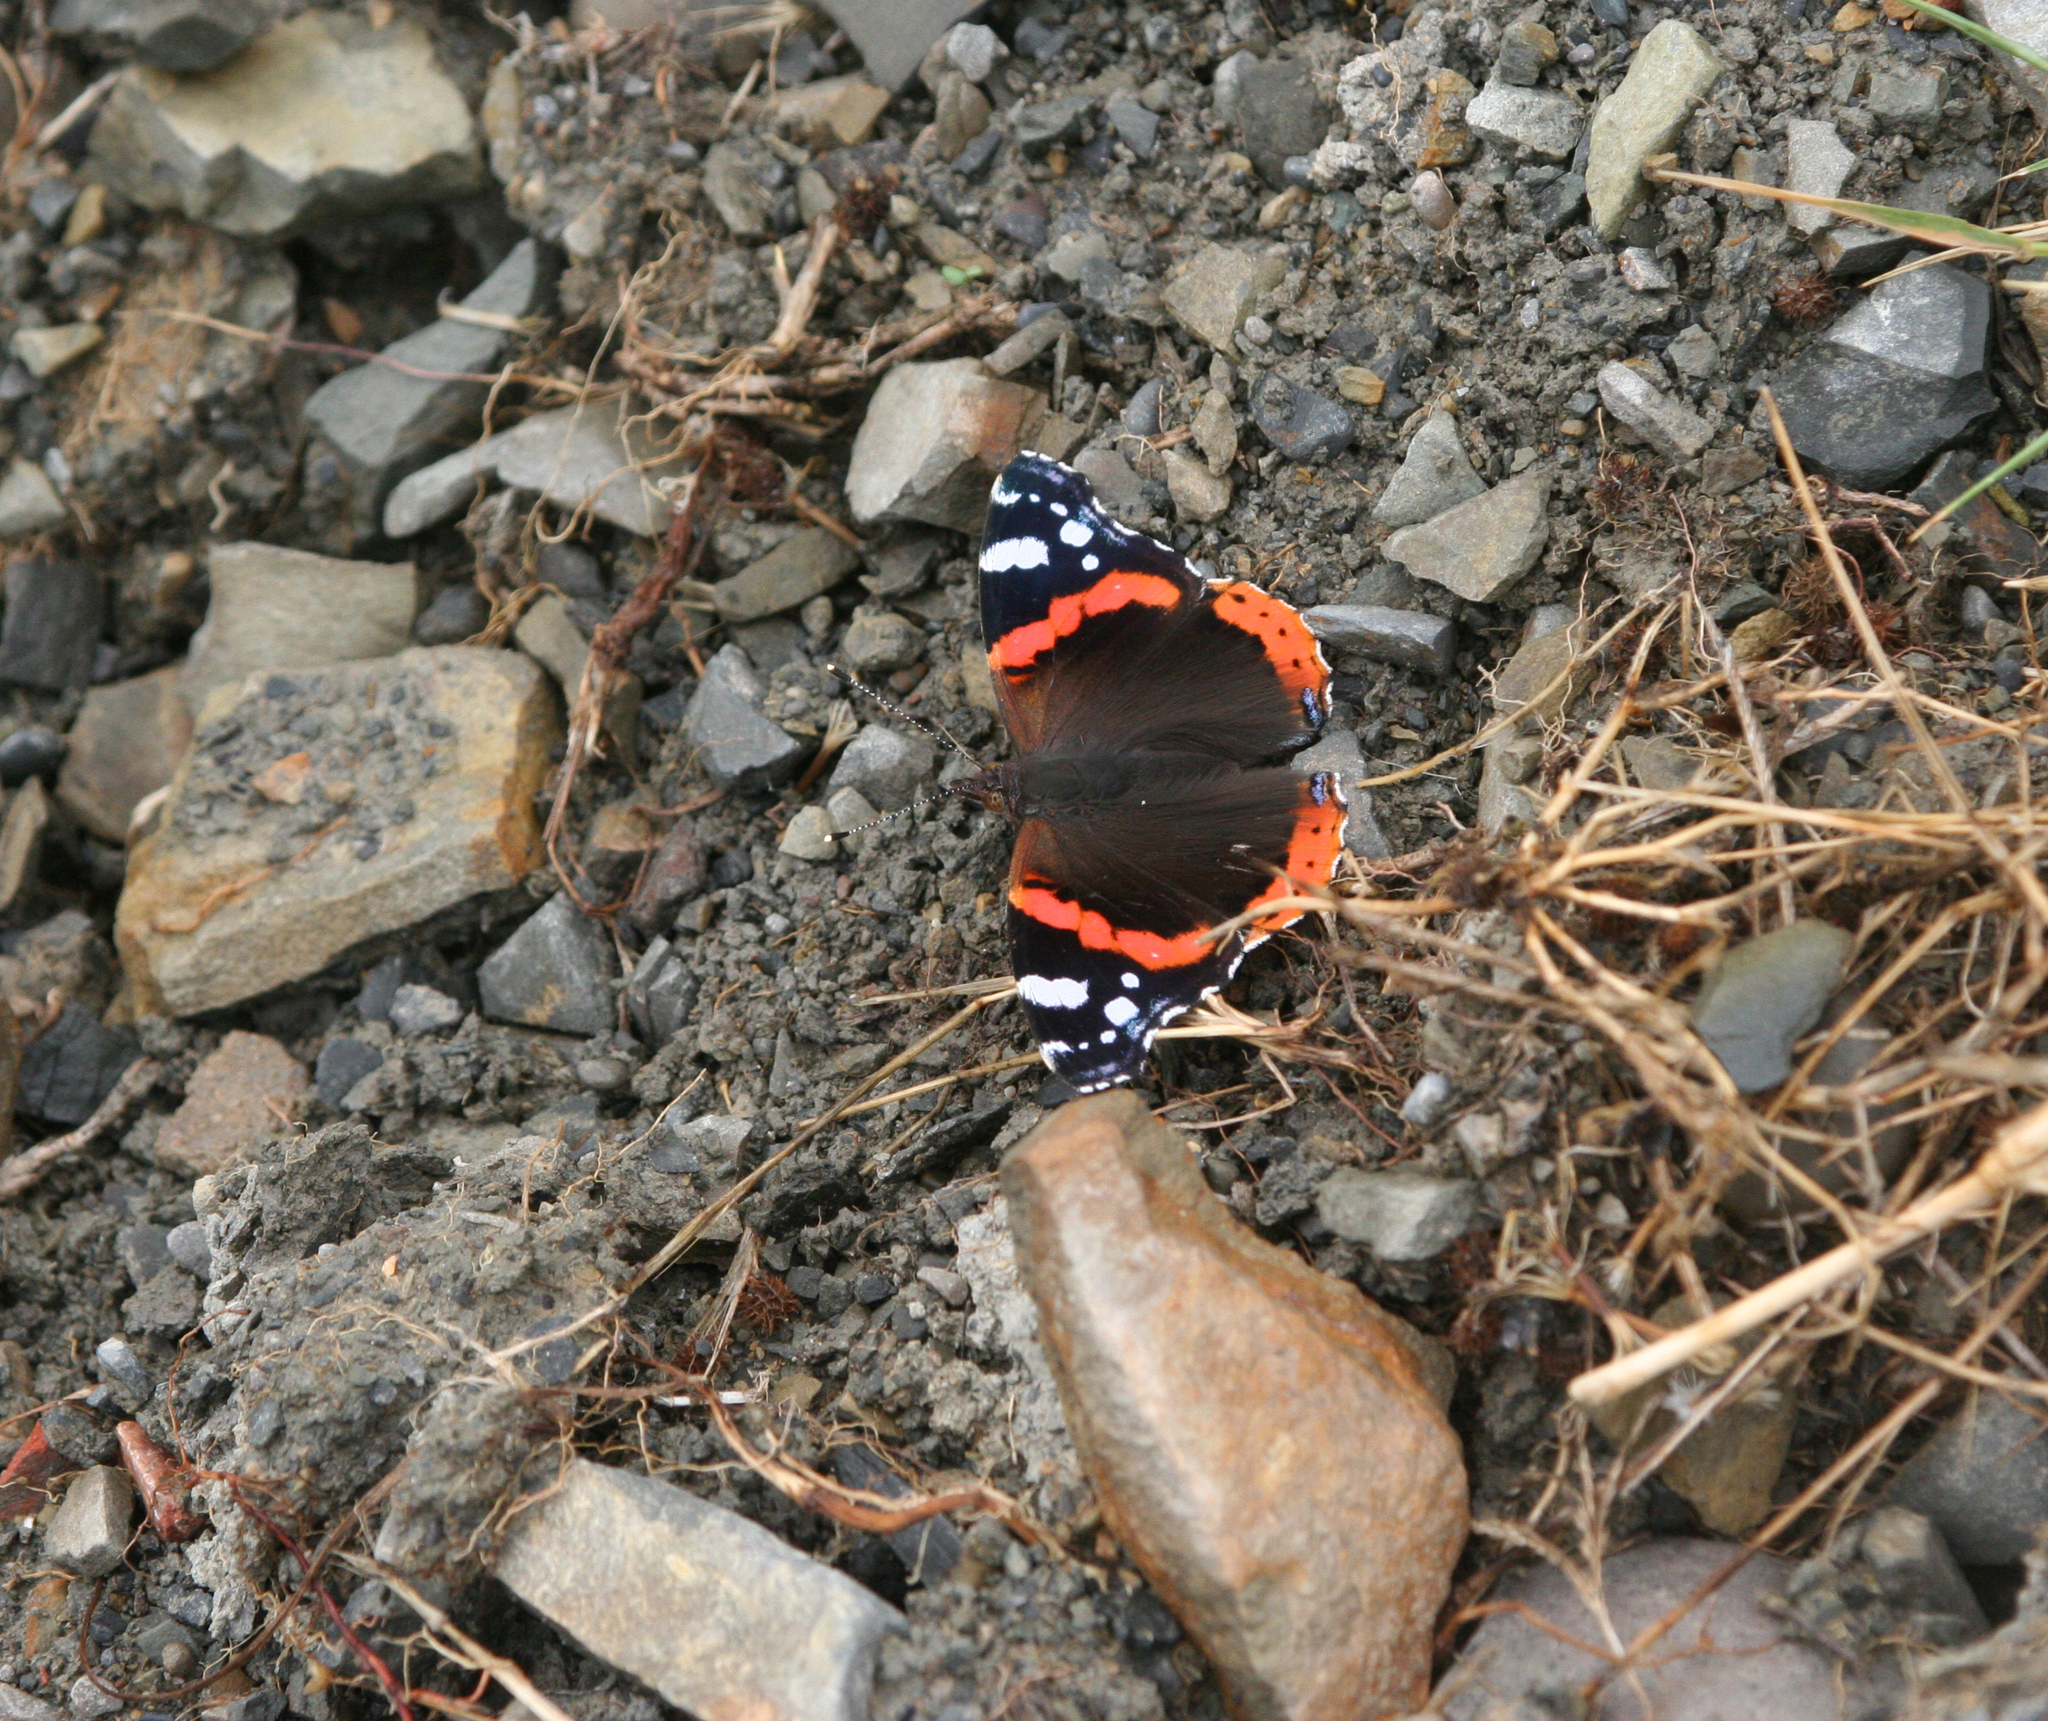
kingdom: Animalia
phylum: Arthropoda
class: Insecta
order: Lepidoptera
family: Nymphalidae
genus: Vanessa
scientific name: Vanessa atalanta
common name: Red admiral
